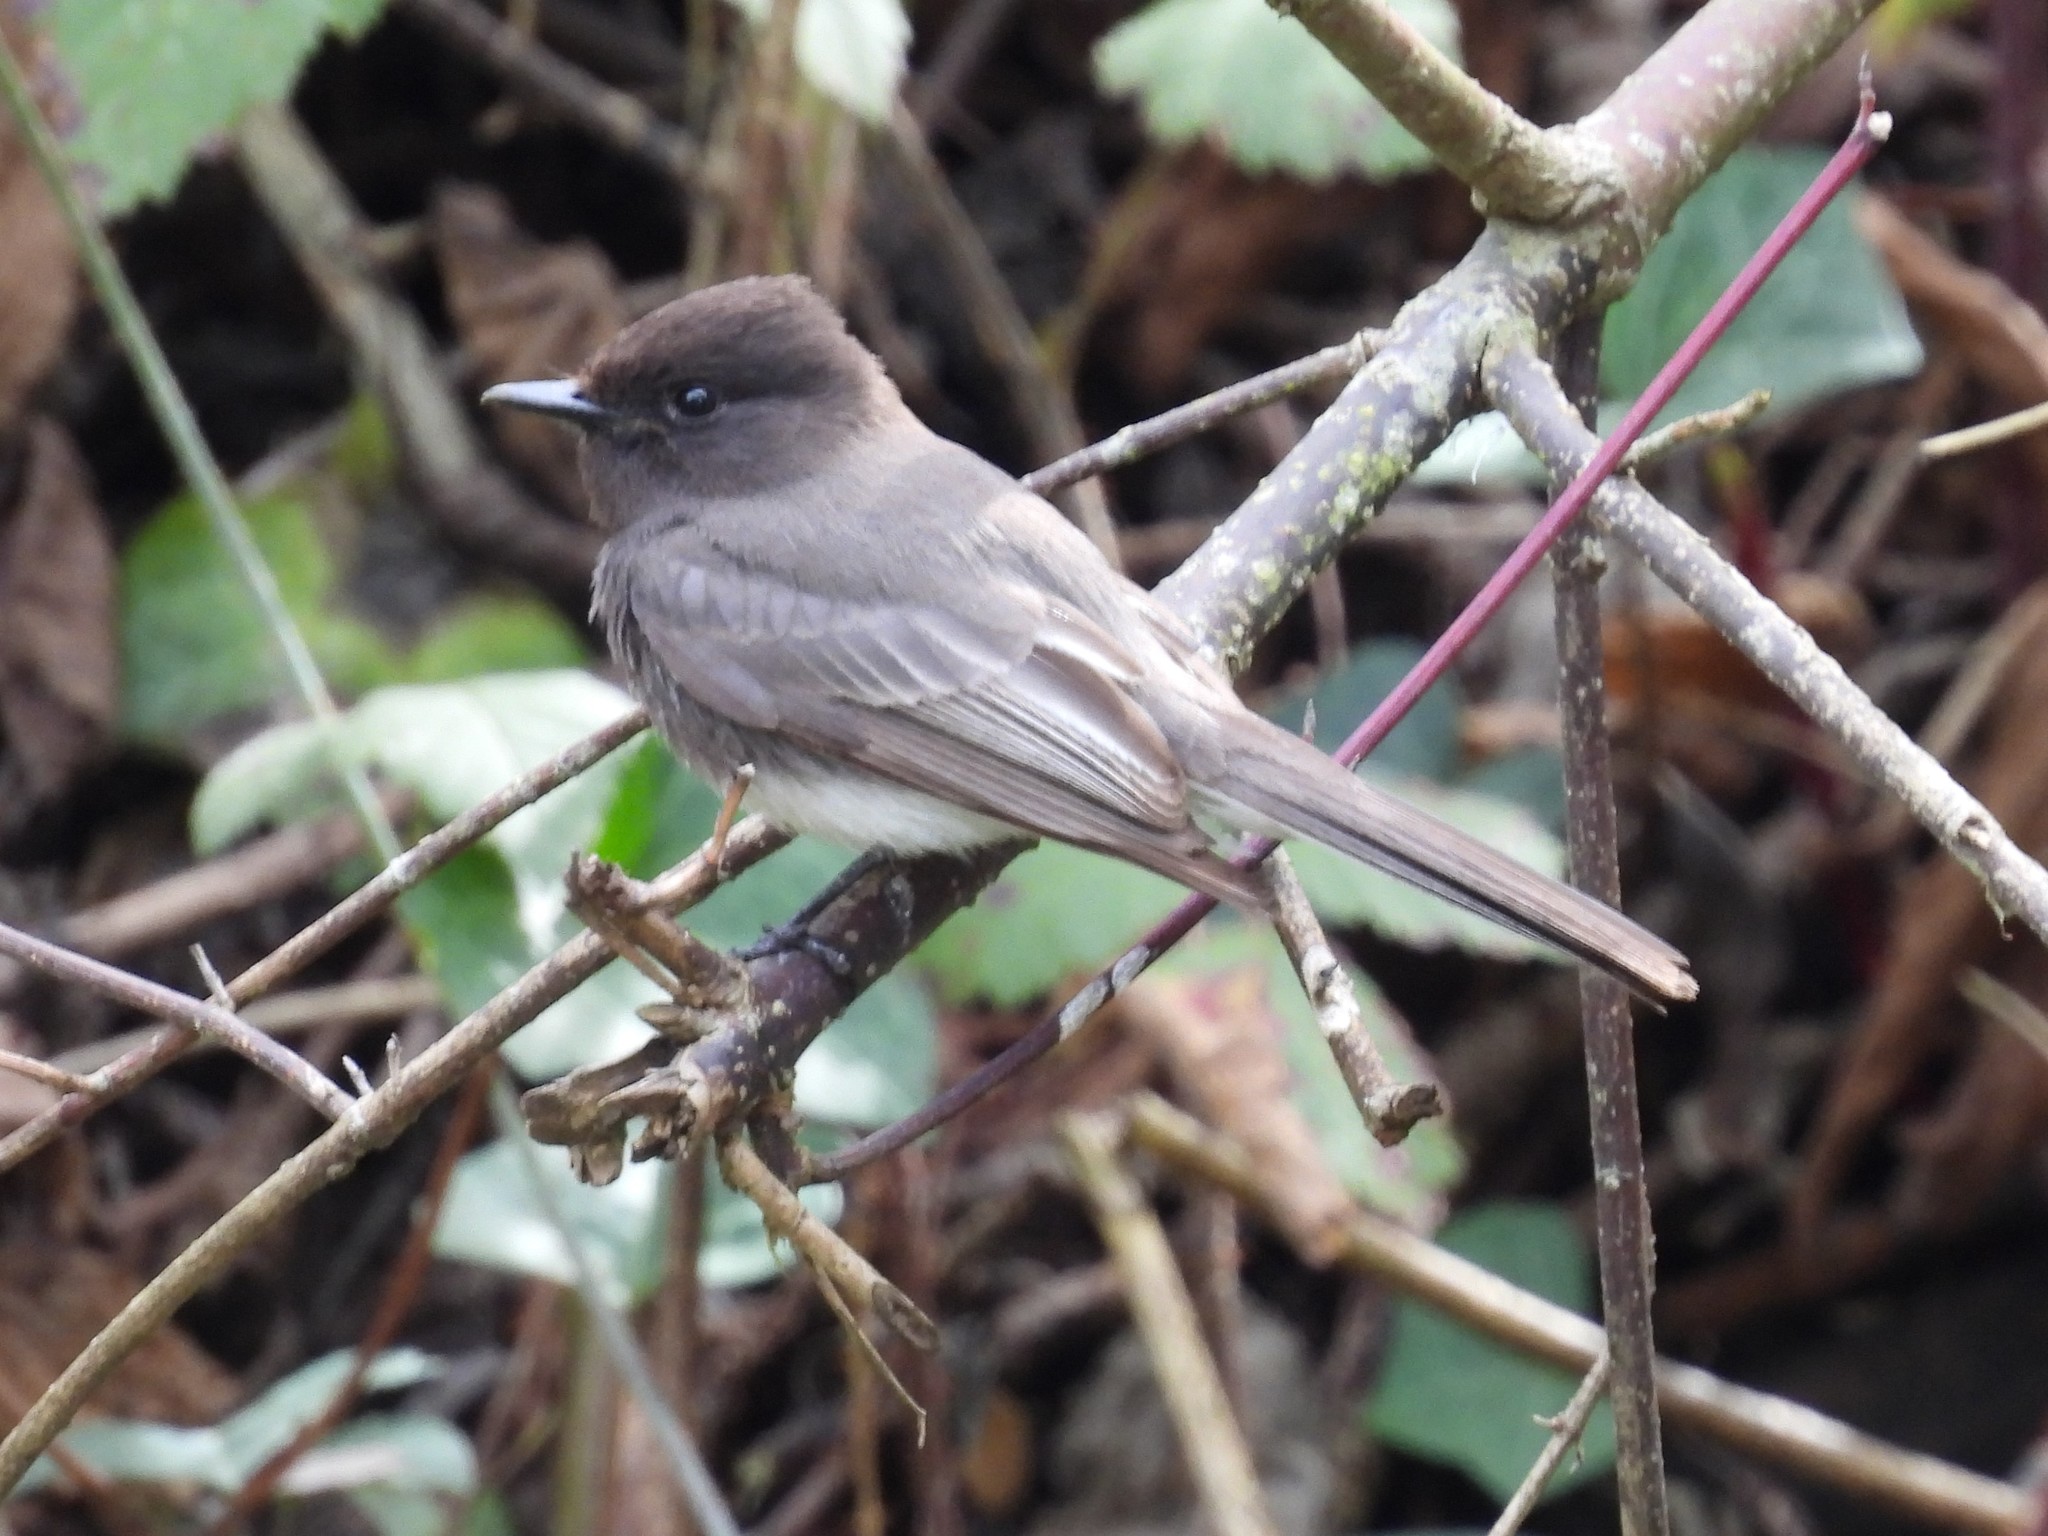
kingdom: Animalia
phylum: Chordata
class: Aves
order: Passeriformes
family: Tyrannidae
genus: Sayornis
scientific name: Sayornis nigricans
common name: Black phoebe
